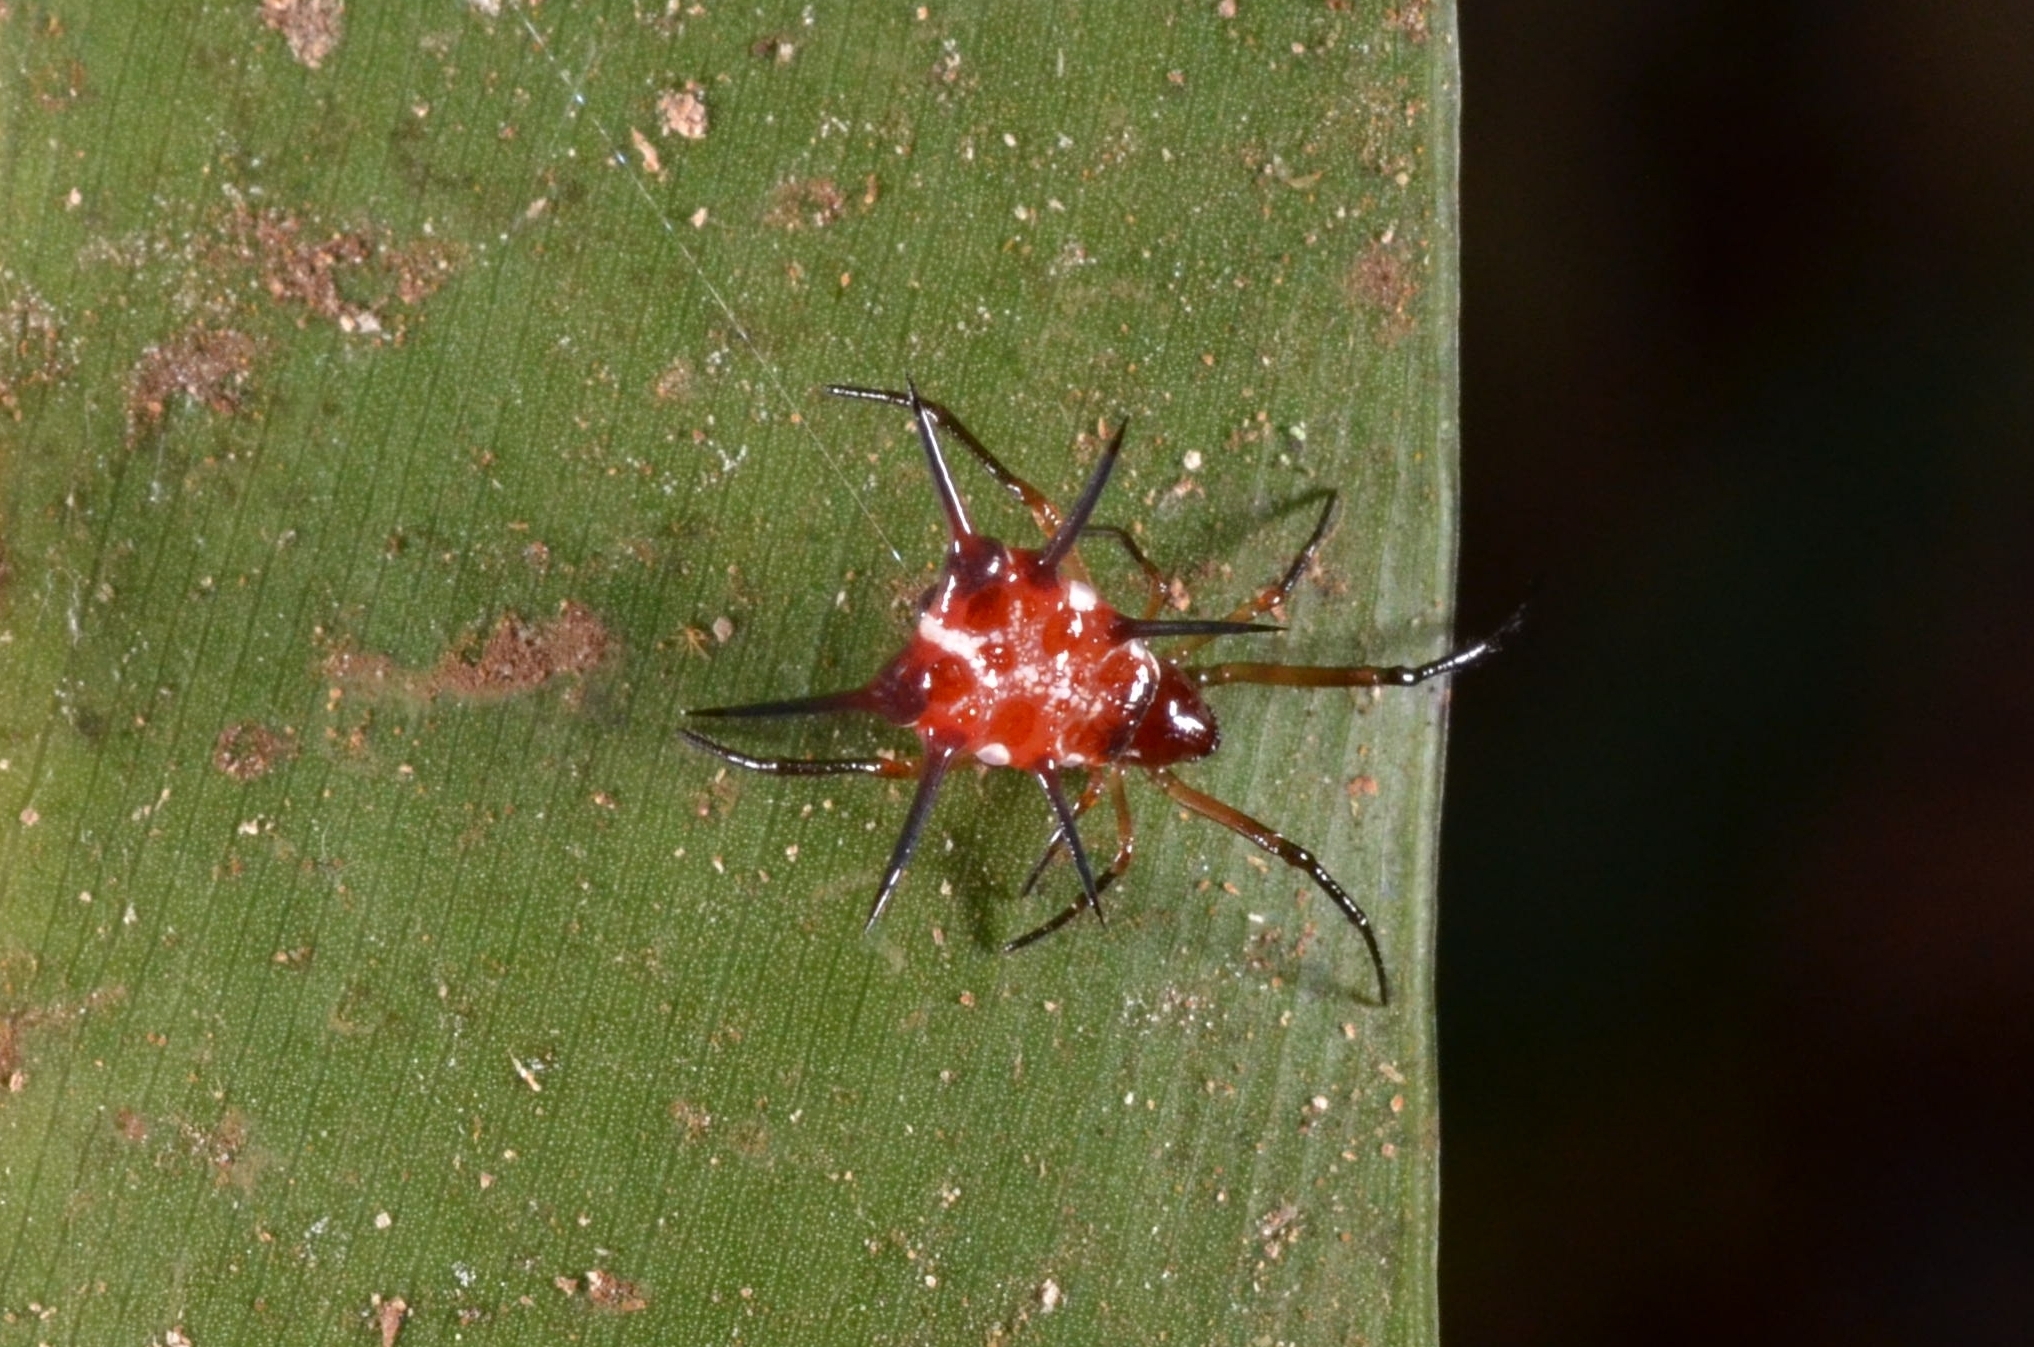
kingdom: Animalia
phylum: Arthropoda
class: Arachnida
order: Araneae
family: Theridiidae
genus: Phoroncidia
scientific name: Phoroncidia lygeana
